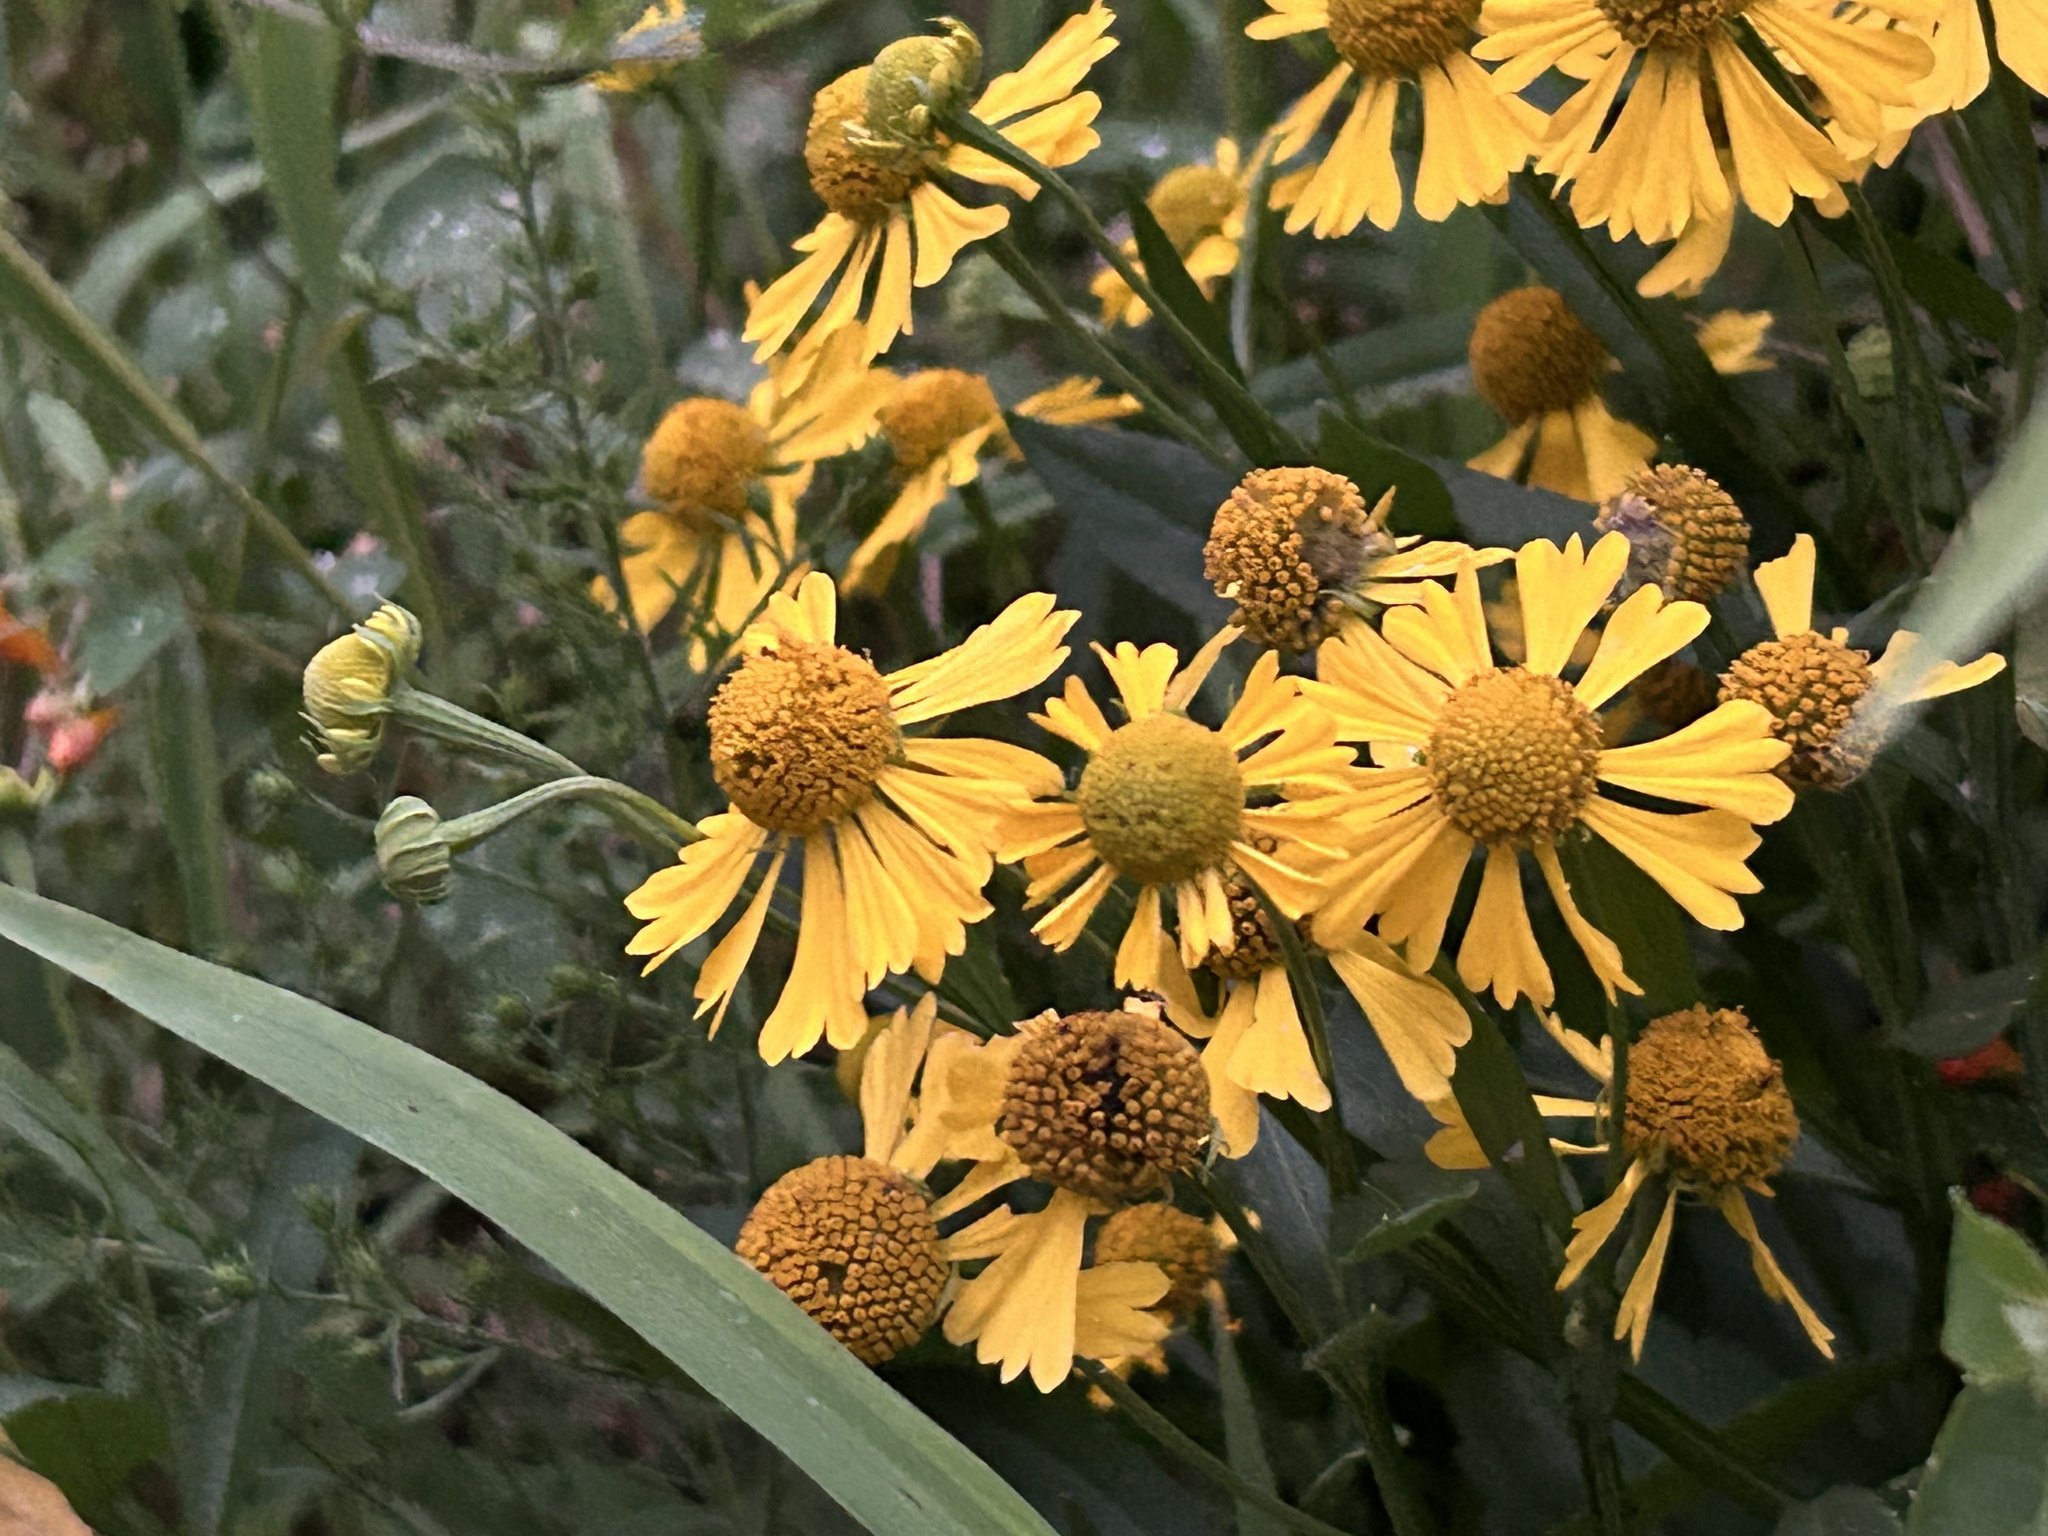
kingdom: Plantae
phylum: Tracheophyta
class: Magnoliopsida
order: Asterales
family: Asteraceae
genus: Helenium
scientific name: Helenium autumnale
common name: Sneezeweed
